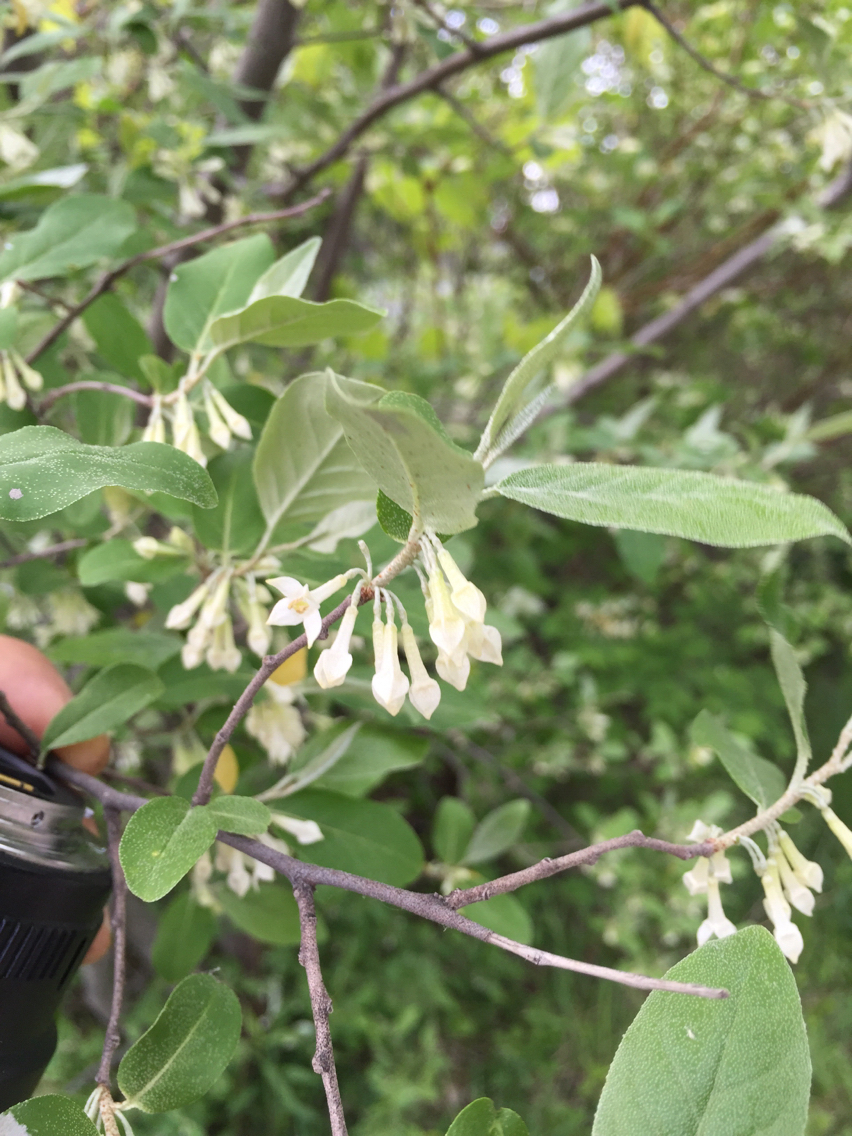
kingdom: Plantae
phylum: Tracheophyta
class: Magnoliopsida
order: Rosales
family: Elaeagnaceae
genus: Elaeagnus
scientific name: Elaeagnus umbellata
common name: Autumn olive
